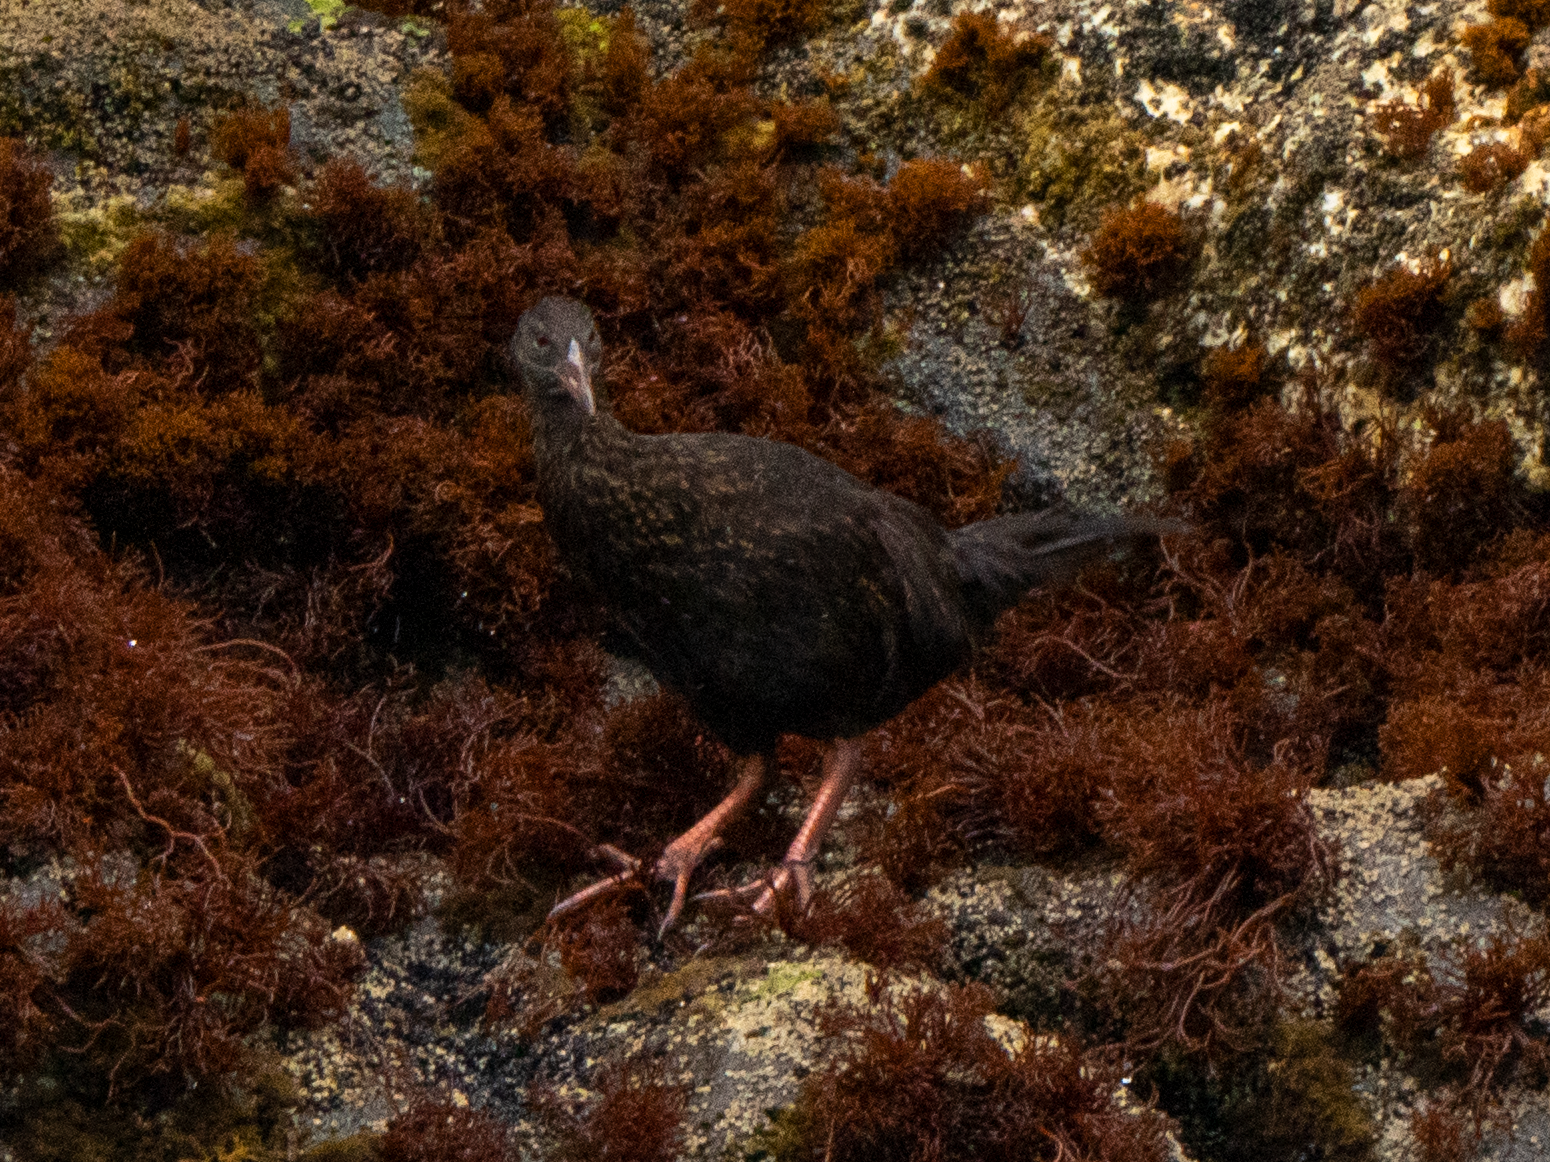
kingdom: Animalia
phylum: Chordata
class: Aves
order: Gruiformes
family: Rallidae
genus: Gallirallus
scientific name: Gallirallus australis
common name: Weka
